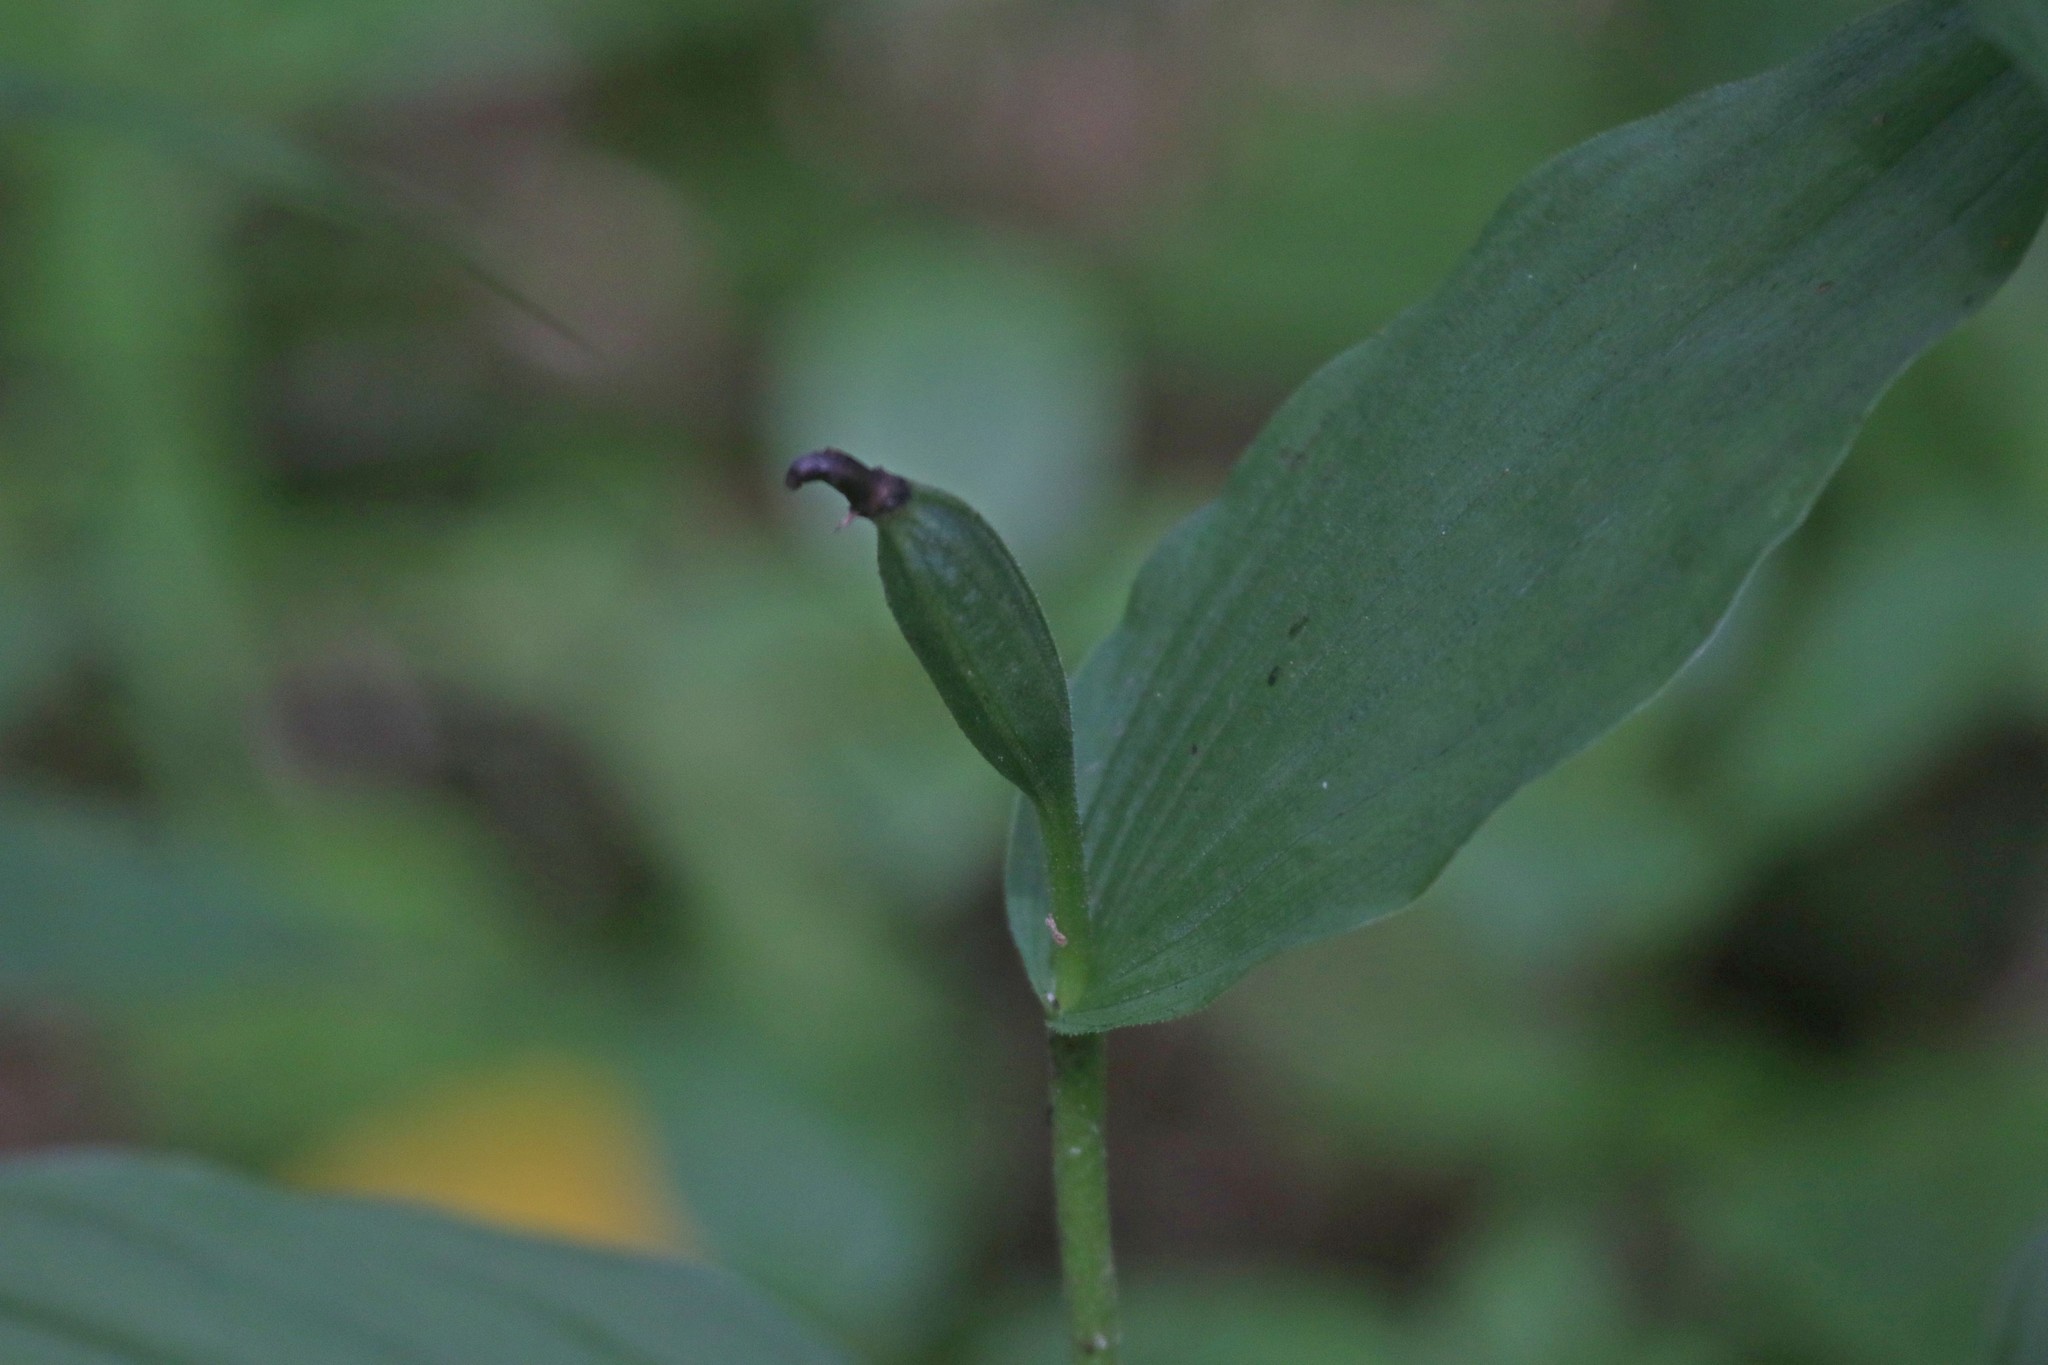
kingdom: Plantae
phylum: Tracheophyta
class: Liliopsida
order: Asparagales
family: Orchidaceae
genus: Cypripedium
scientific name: Cypripedium calceolus
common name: Lady's-slipper
